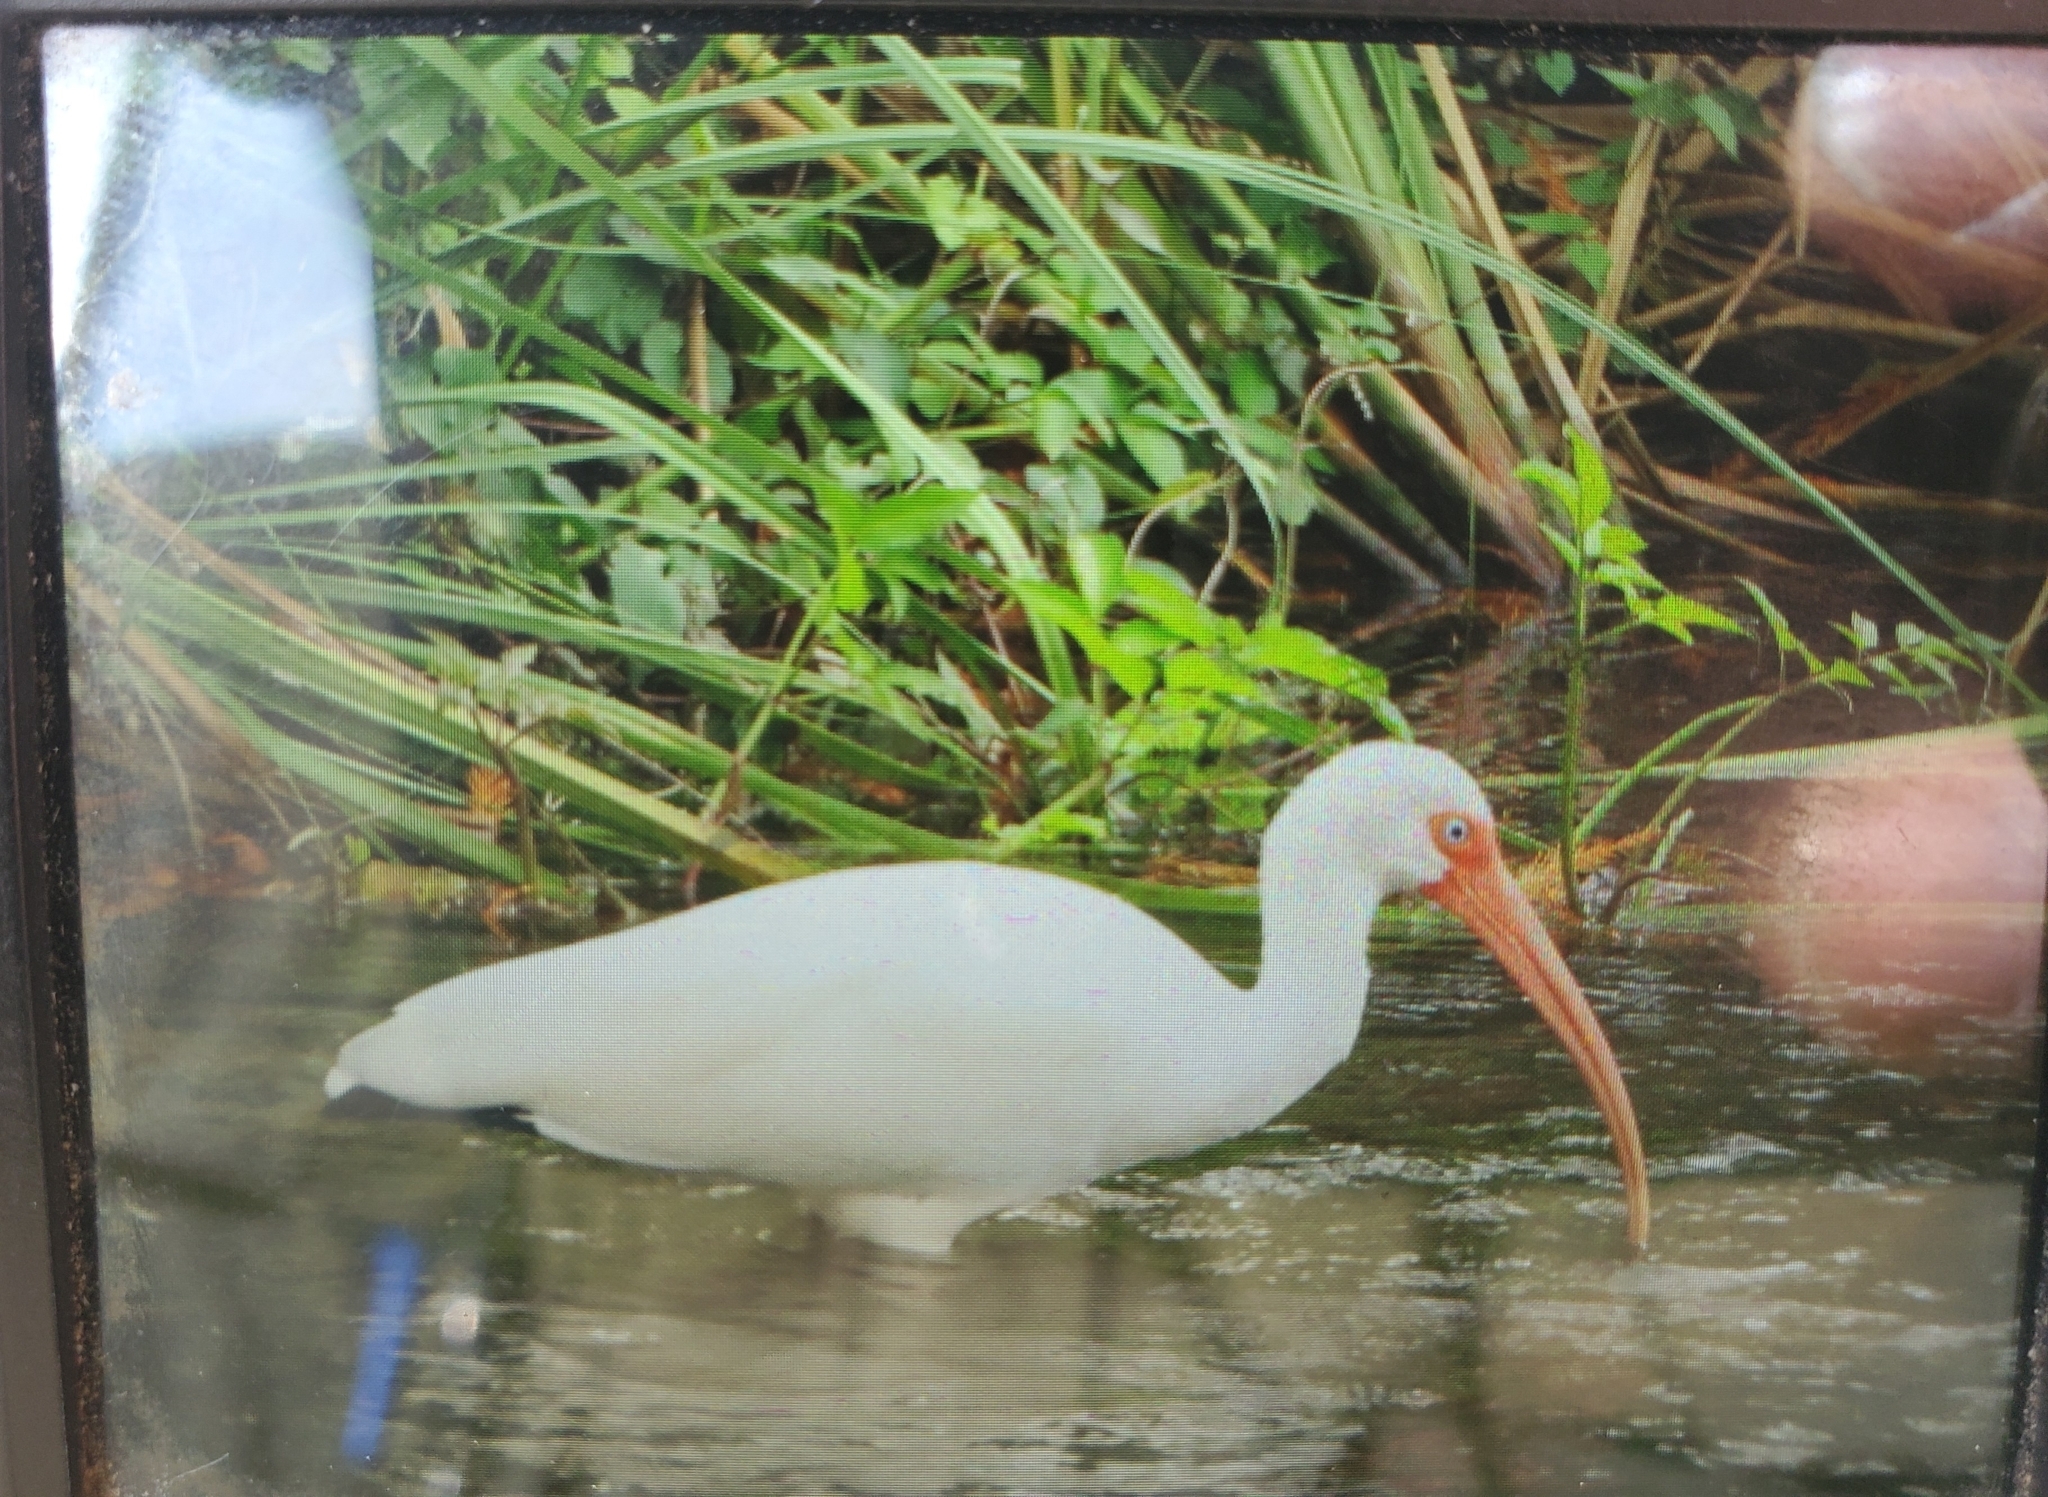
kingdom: Animalia
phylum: Chordata
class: Aves
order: Pelecaniformes
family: Threskiornithidae
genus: Eudocimus
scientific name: Eudocimus albus
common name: White ibis
